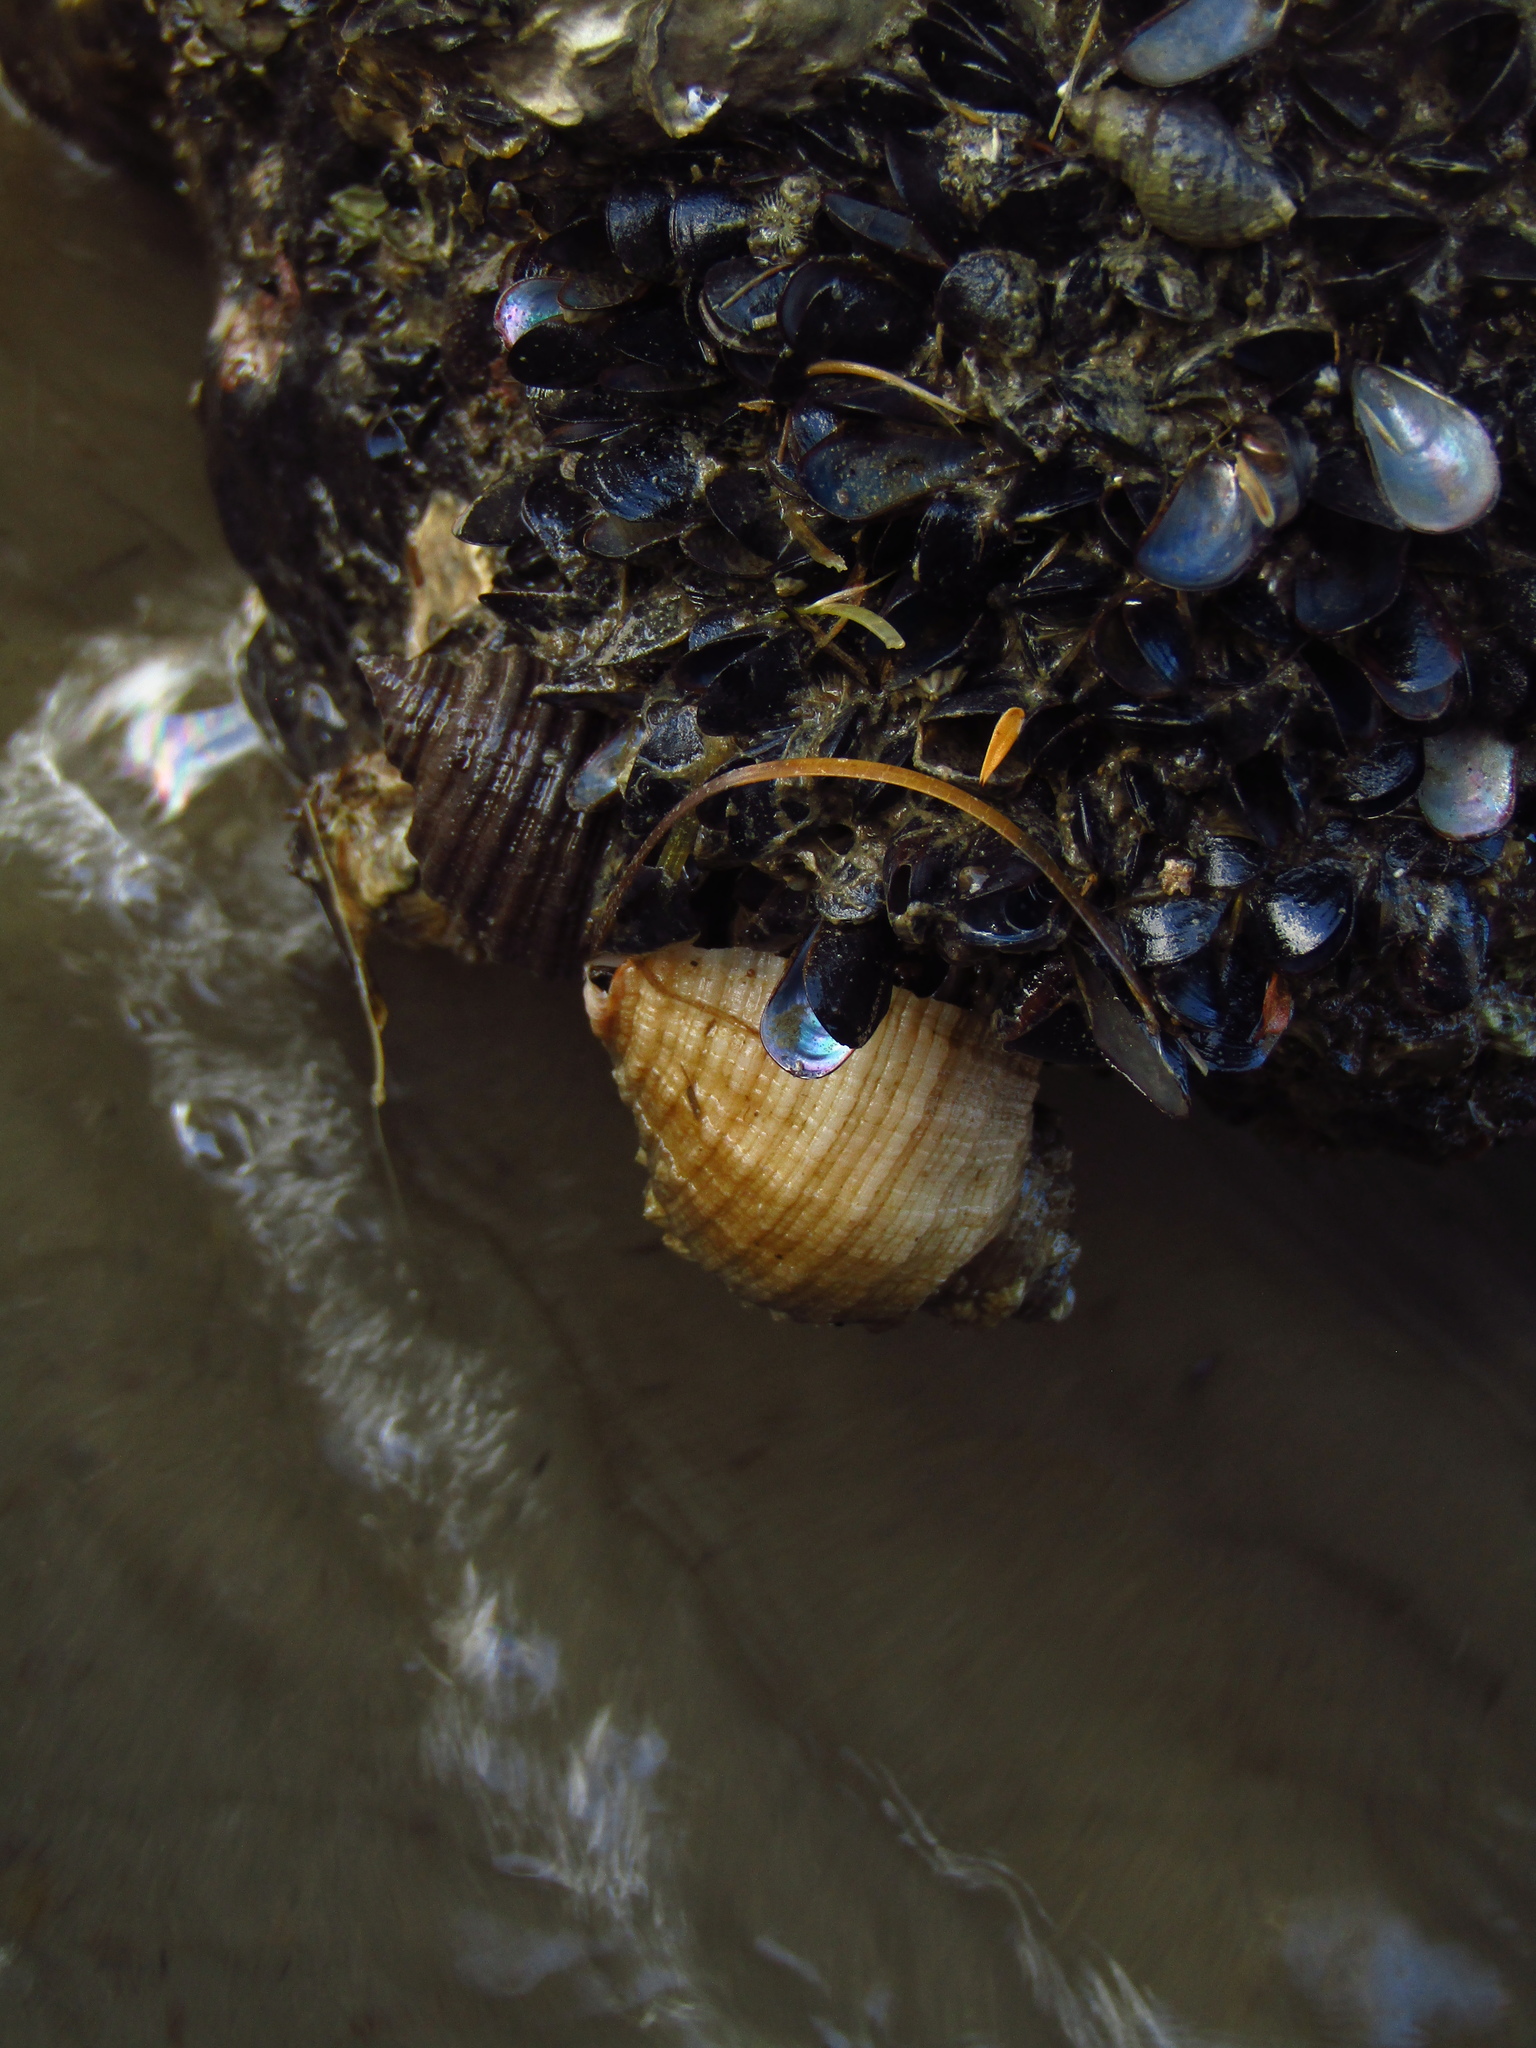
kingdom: Animalia
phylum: Mollusca
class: Gastropoda
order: Neogastropoda
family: Muricidae
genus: Dicathais
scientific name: Dicathais orbita
